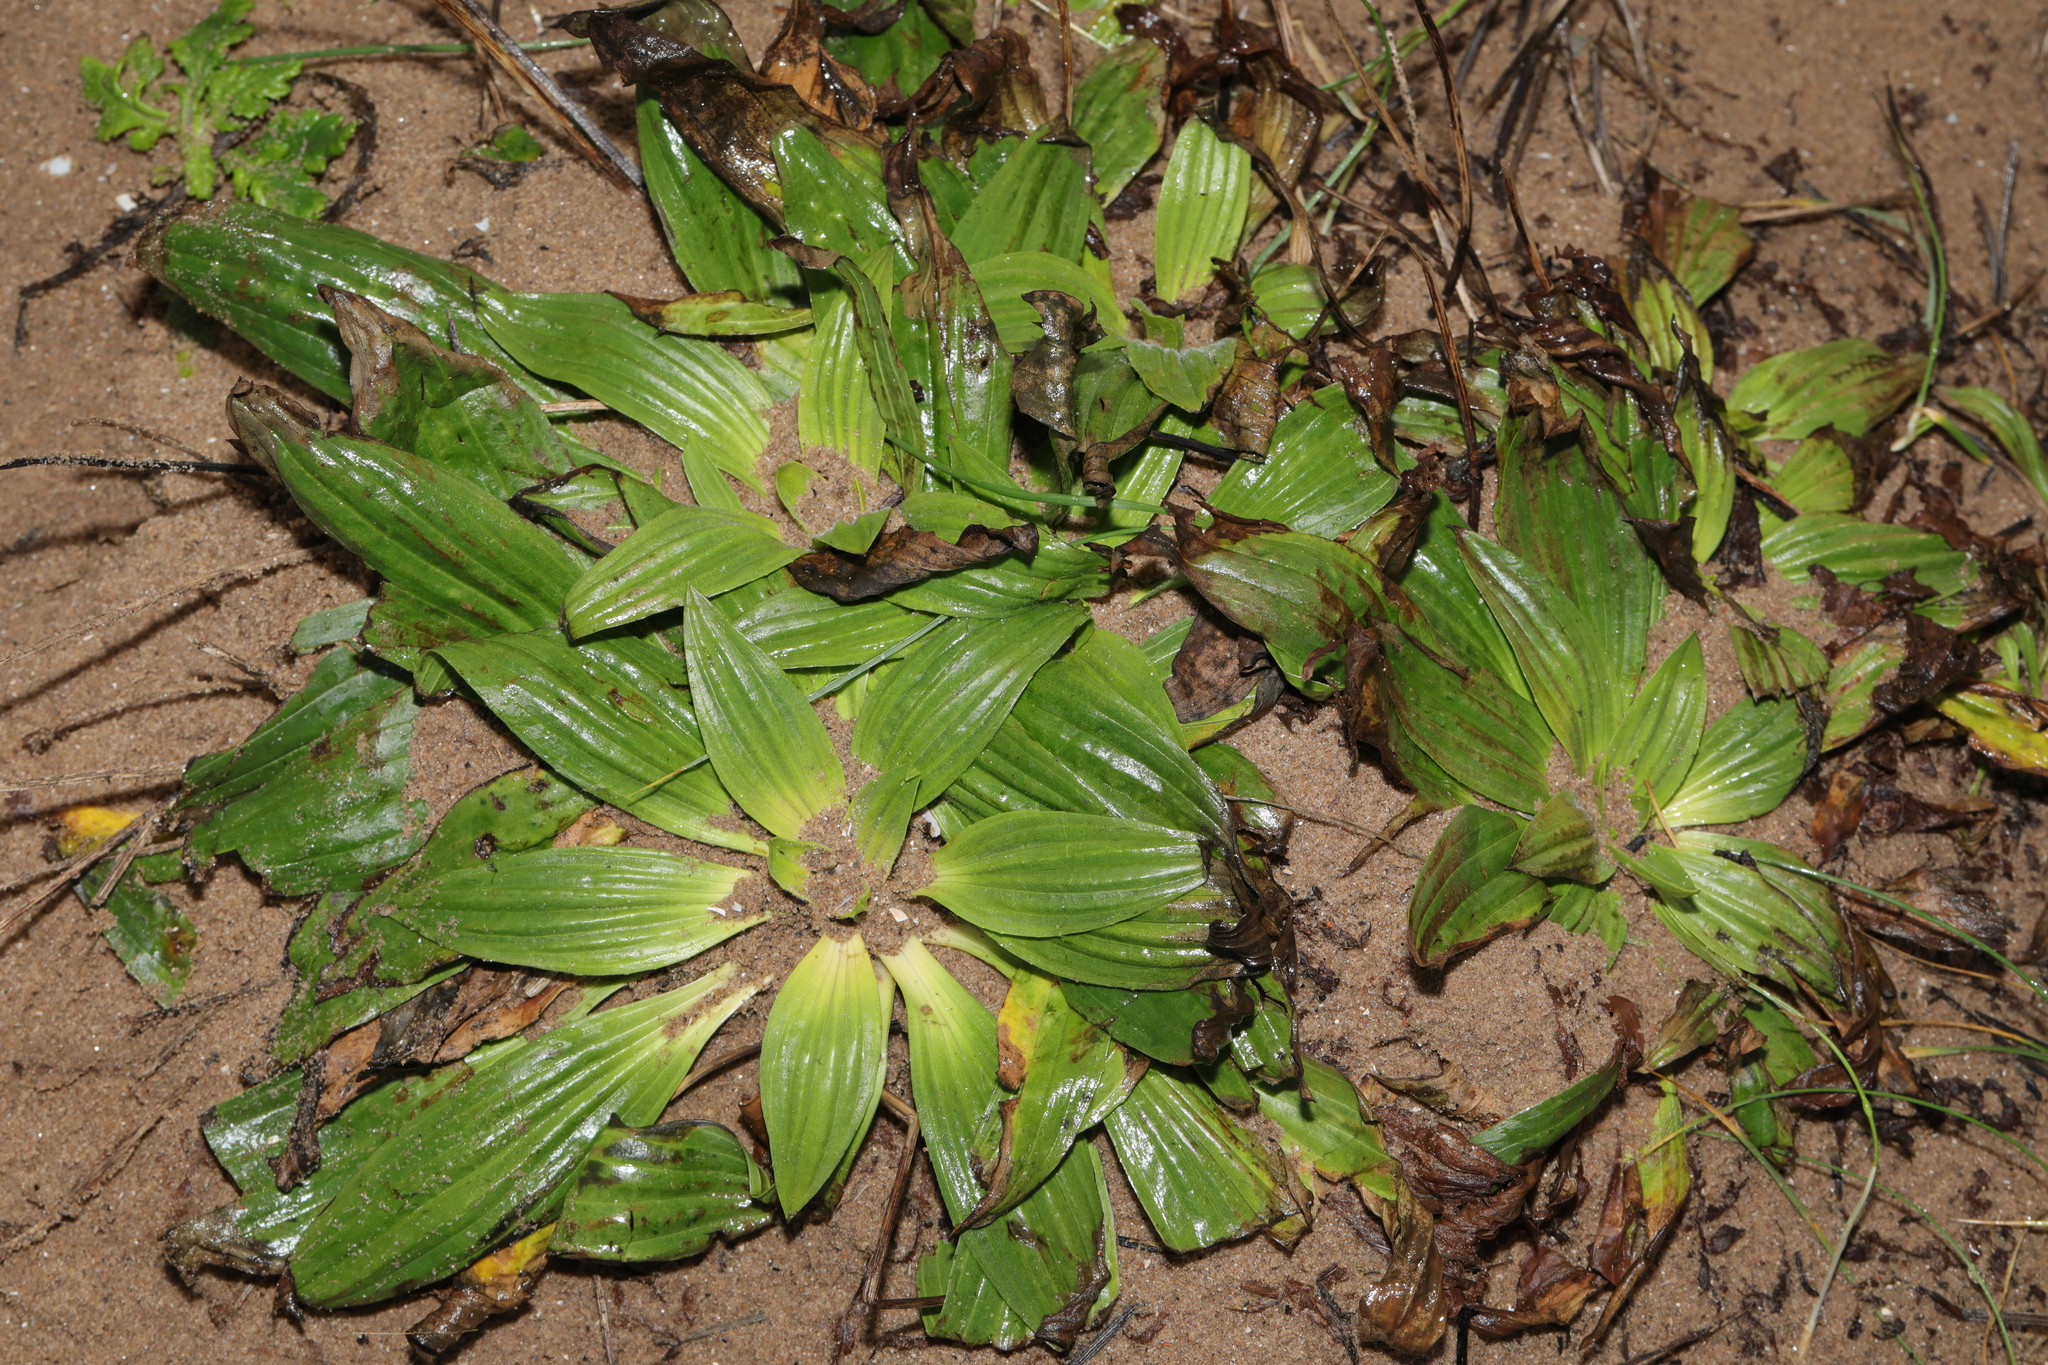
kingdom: Plantae
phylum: Tracheophyta
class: Magnoliopsida
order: Lamiales
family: Plantaginaceae
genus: Plantago
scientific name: Plantago lanceolata
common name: Ribwort plantain
